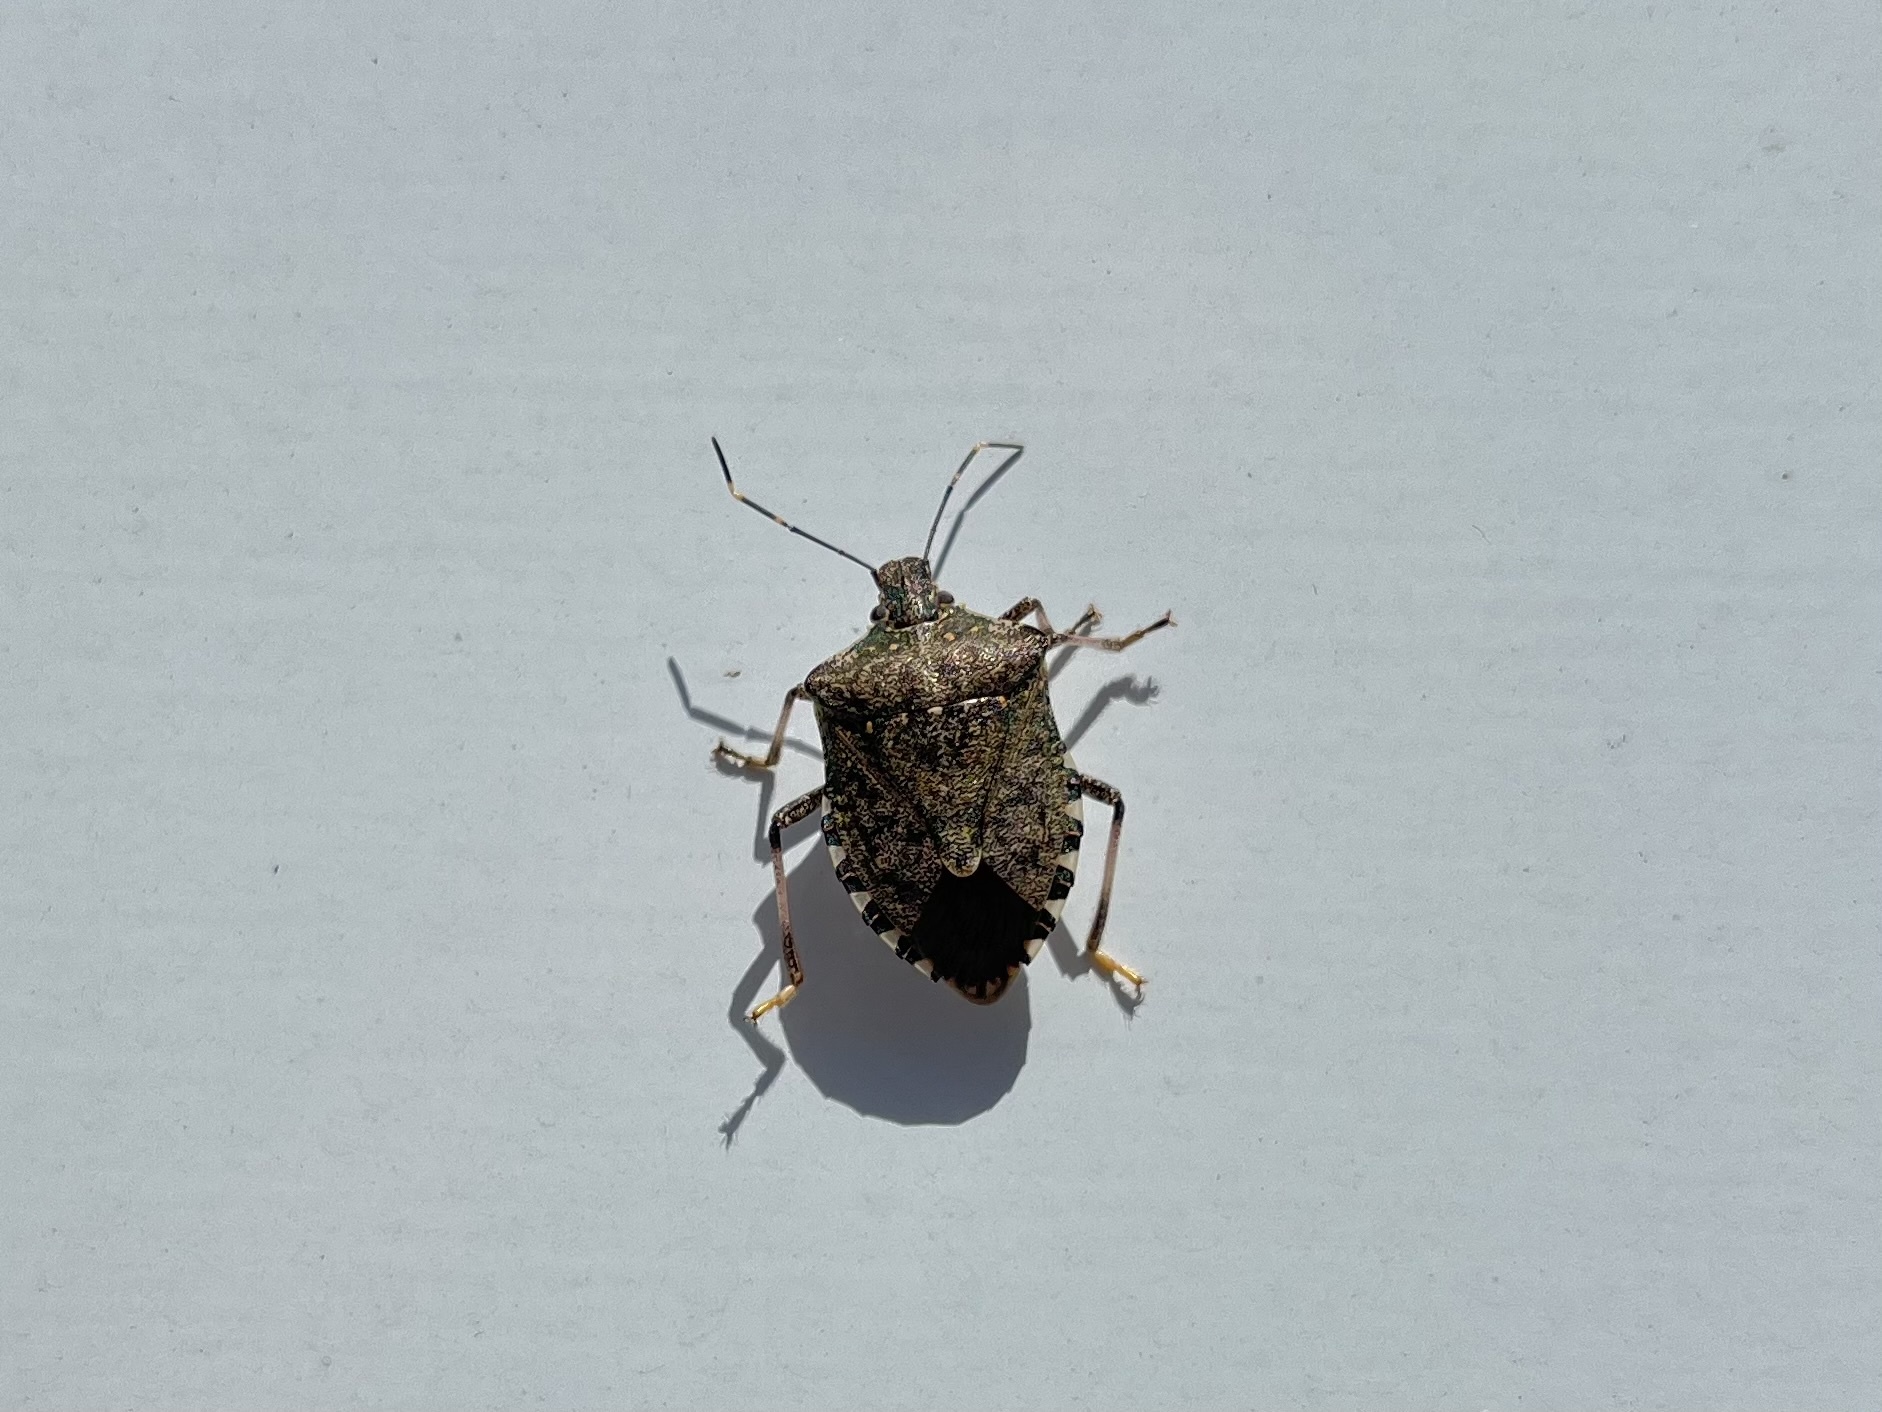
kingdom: Animalia
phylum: Arthropoda
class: Insecta
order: Hemiptera
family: Pentatomidae
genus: Halyomorpha
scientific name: Halyomorpha halys
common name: Brown marmorated stink bug
